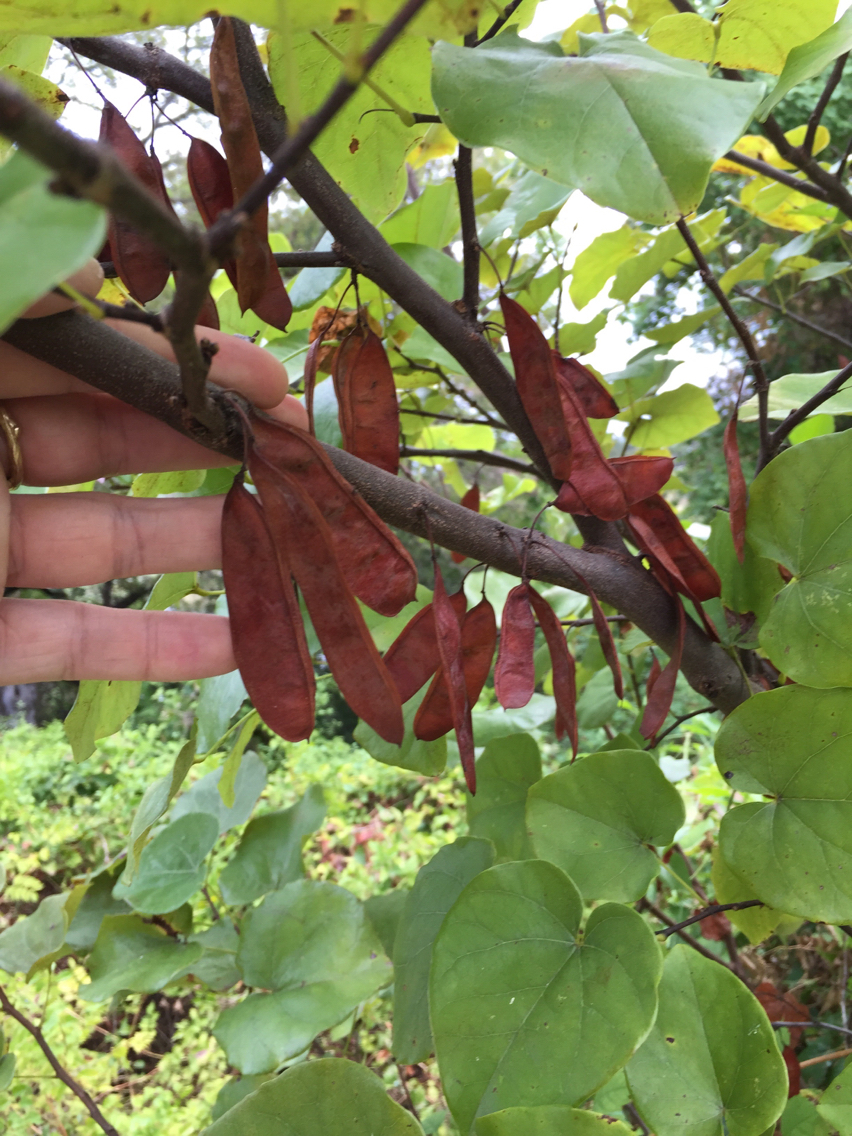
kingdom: Plantae
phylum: Tracheophyta
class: Magnoliopsida
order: Fabales
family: Fabaceae
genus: Cercis
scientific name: Cercis canadensis
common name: Eastern redbud
